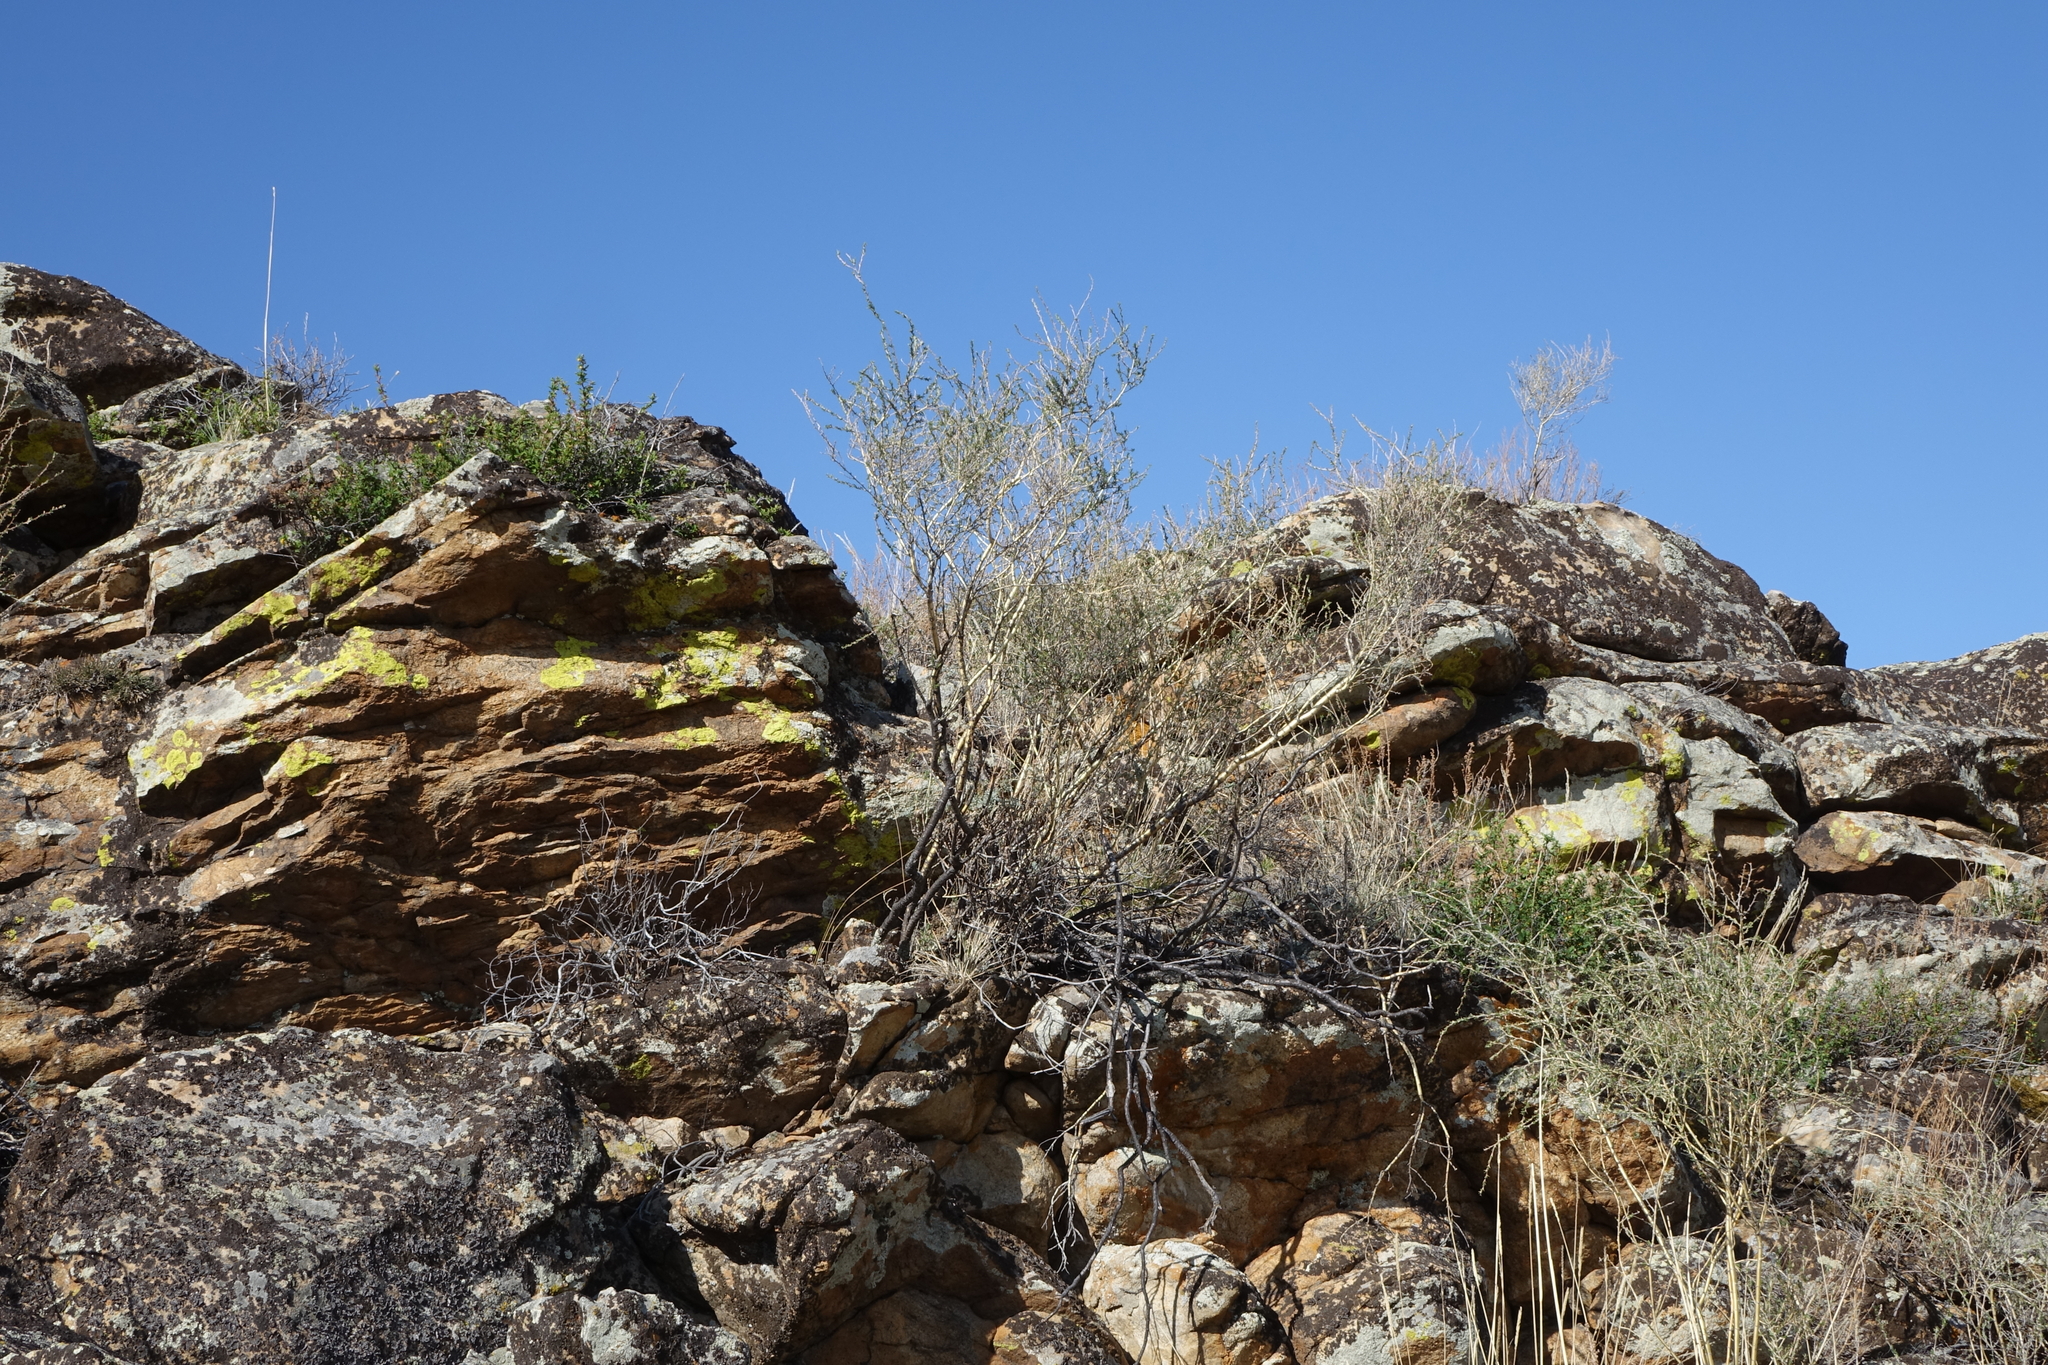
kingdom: Plantae
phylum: Tracheophyta
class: Magnoliopsida
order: Fabales
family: Fabaceae
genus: Caragana
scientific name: Caragana pygmaea
